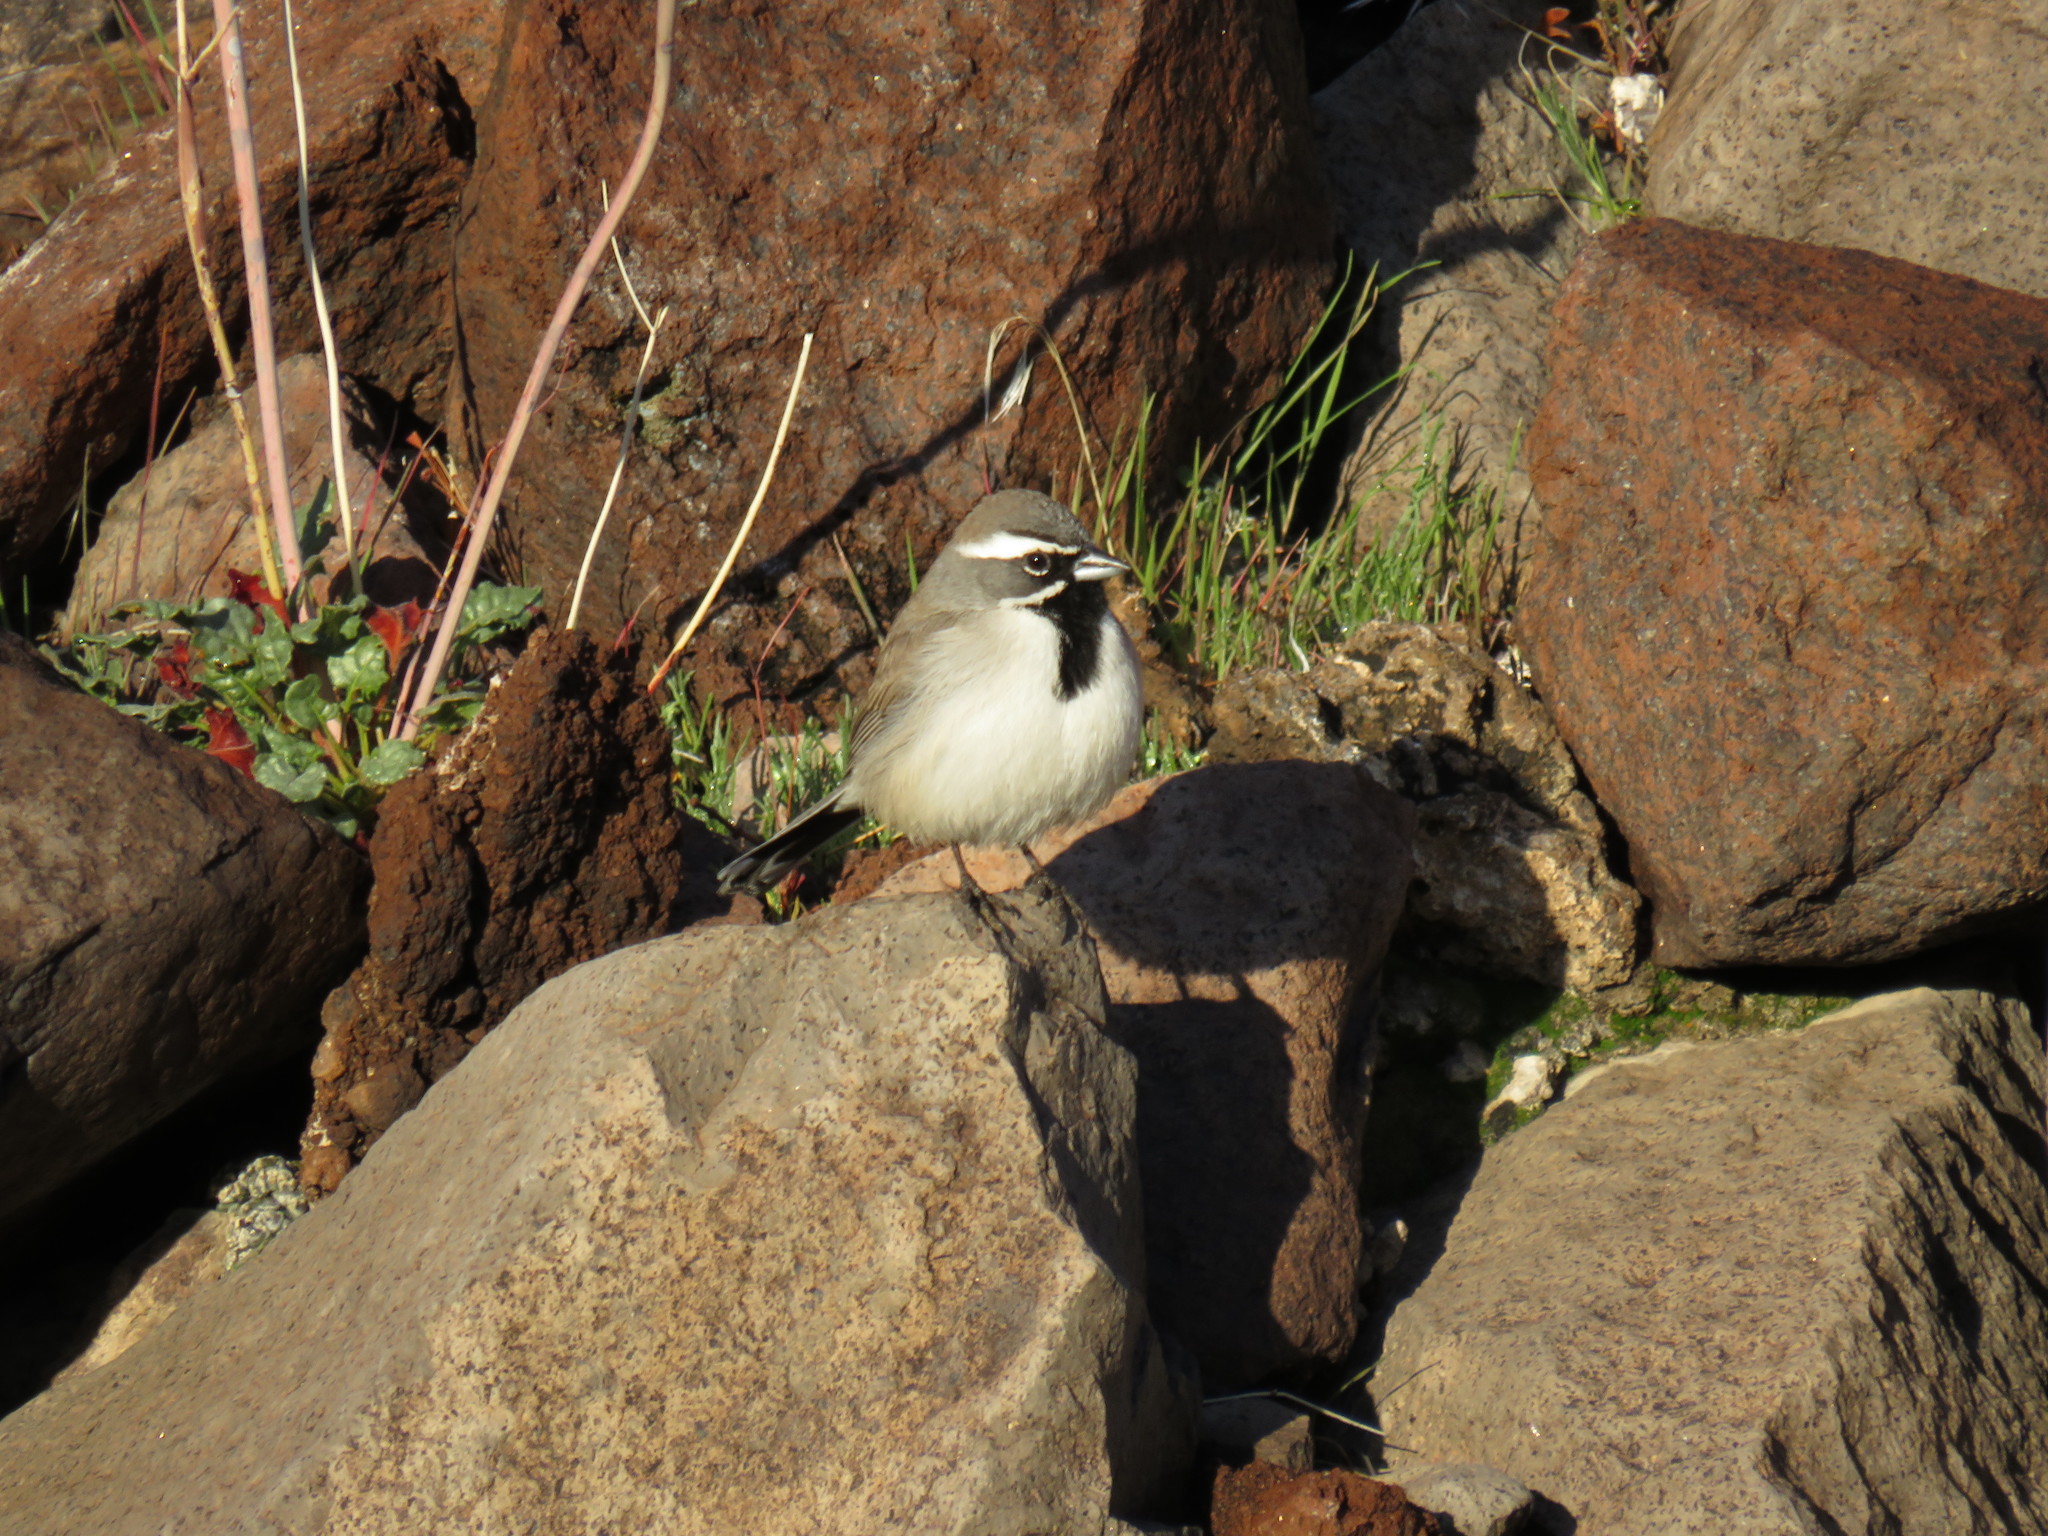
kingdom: Animalia
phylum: Chordata
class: Aves
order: Passeriformes
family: Passerellidae
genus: Amphispiza
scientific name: Amphispiza bilineata
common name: Black-throated sparrow
